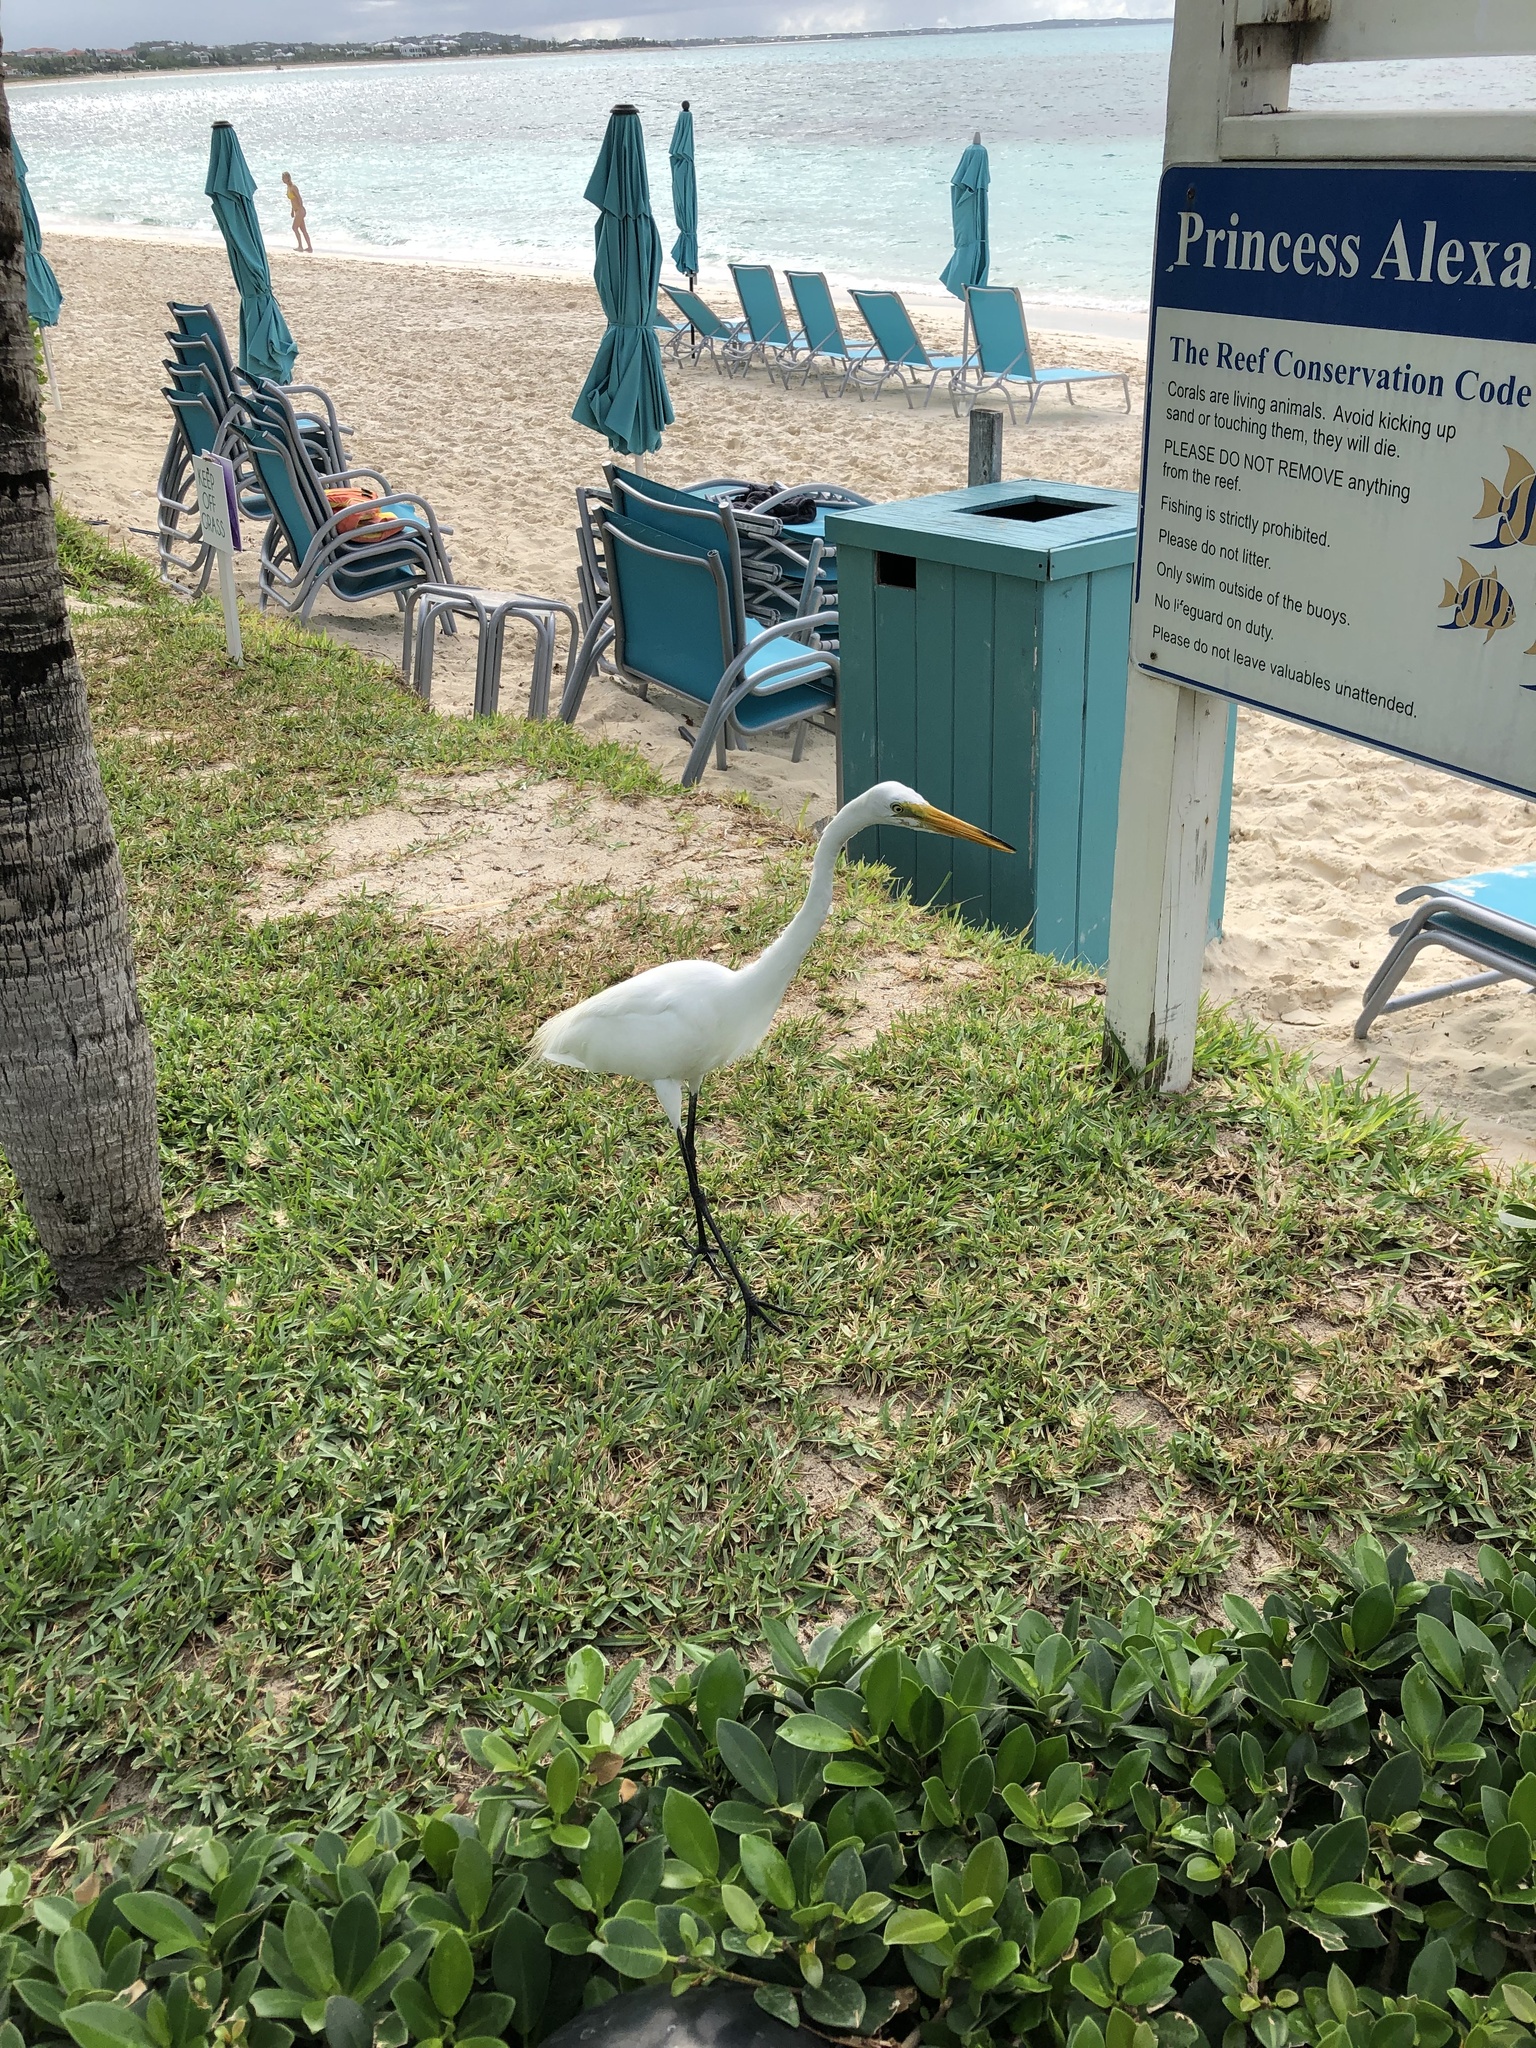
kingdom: Animalia
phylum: Chordata
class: Aves
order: Pelecaniformes
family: Ardeidae
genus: Ardea
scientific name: Ardea alba
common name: Great egret
